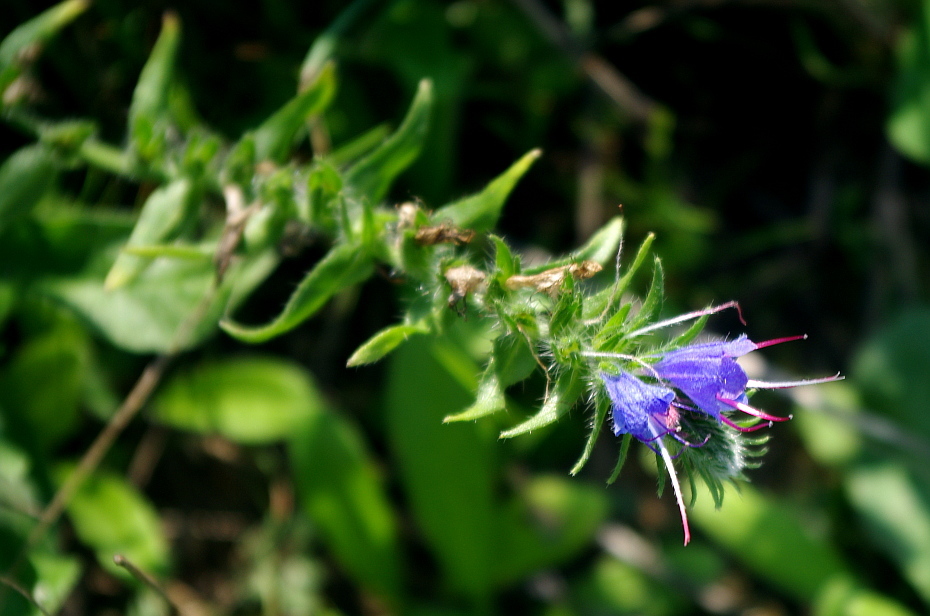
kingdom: Plantae
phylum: Tracheophyta
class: Magnoliopsida
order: Boraginales
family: Boraginaceae
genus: Echium
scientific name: Echium vulgare
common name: Common viper's bugloss
